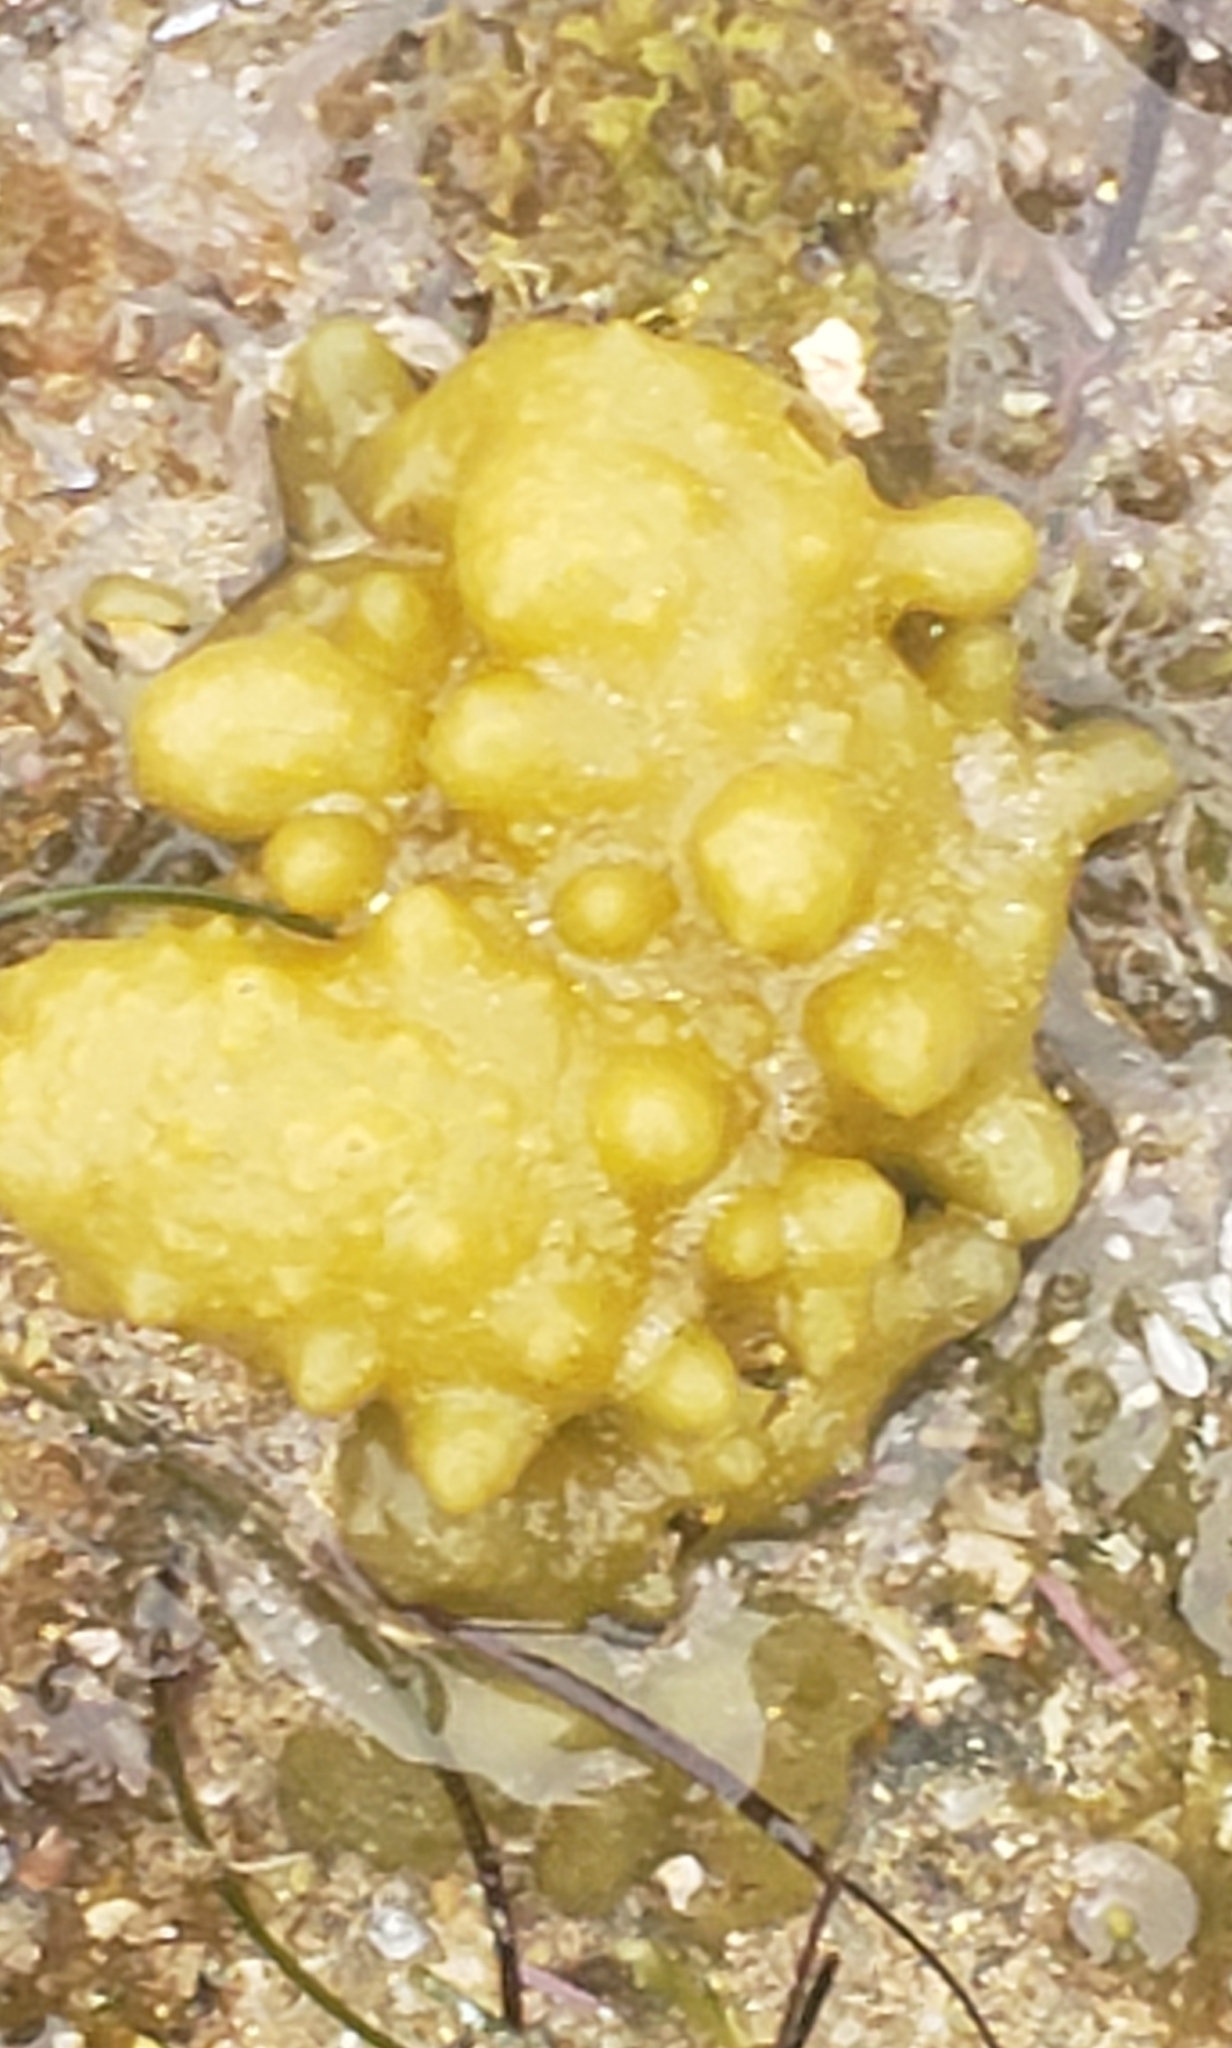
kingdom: Chromista
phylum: Ochrophyta
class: Phaeophyceae
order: Scytosiphonales
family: Scytosiphonaceae
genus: Colpomenia
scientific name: Colpomenia
